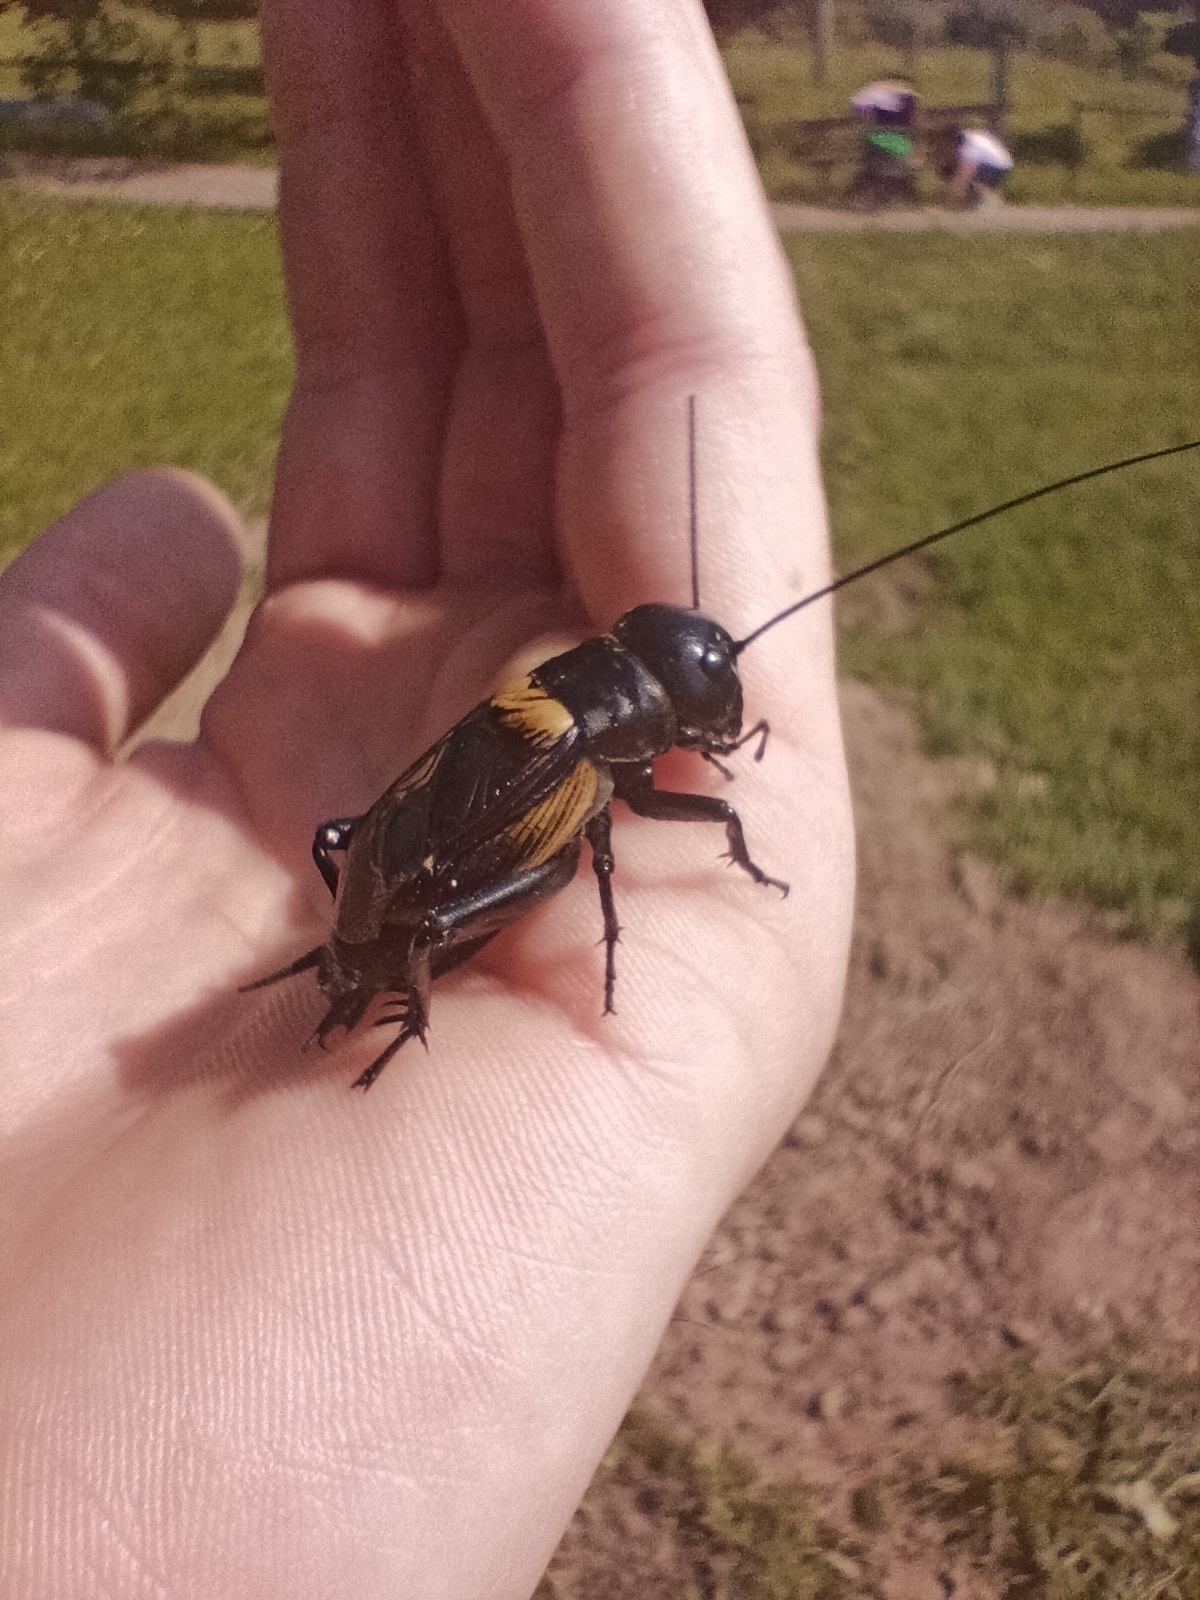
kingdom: Animalia
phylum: Arthropoda
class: Insecta
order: Orthoptera
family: Gryllidae
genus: Gryllus
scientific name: Gryllus campestris
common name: Field cricket
